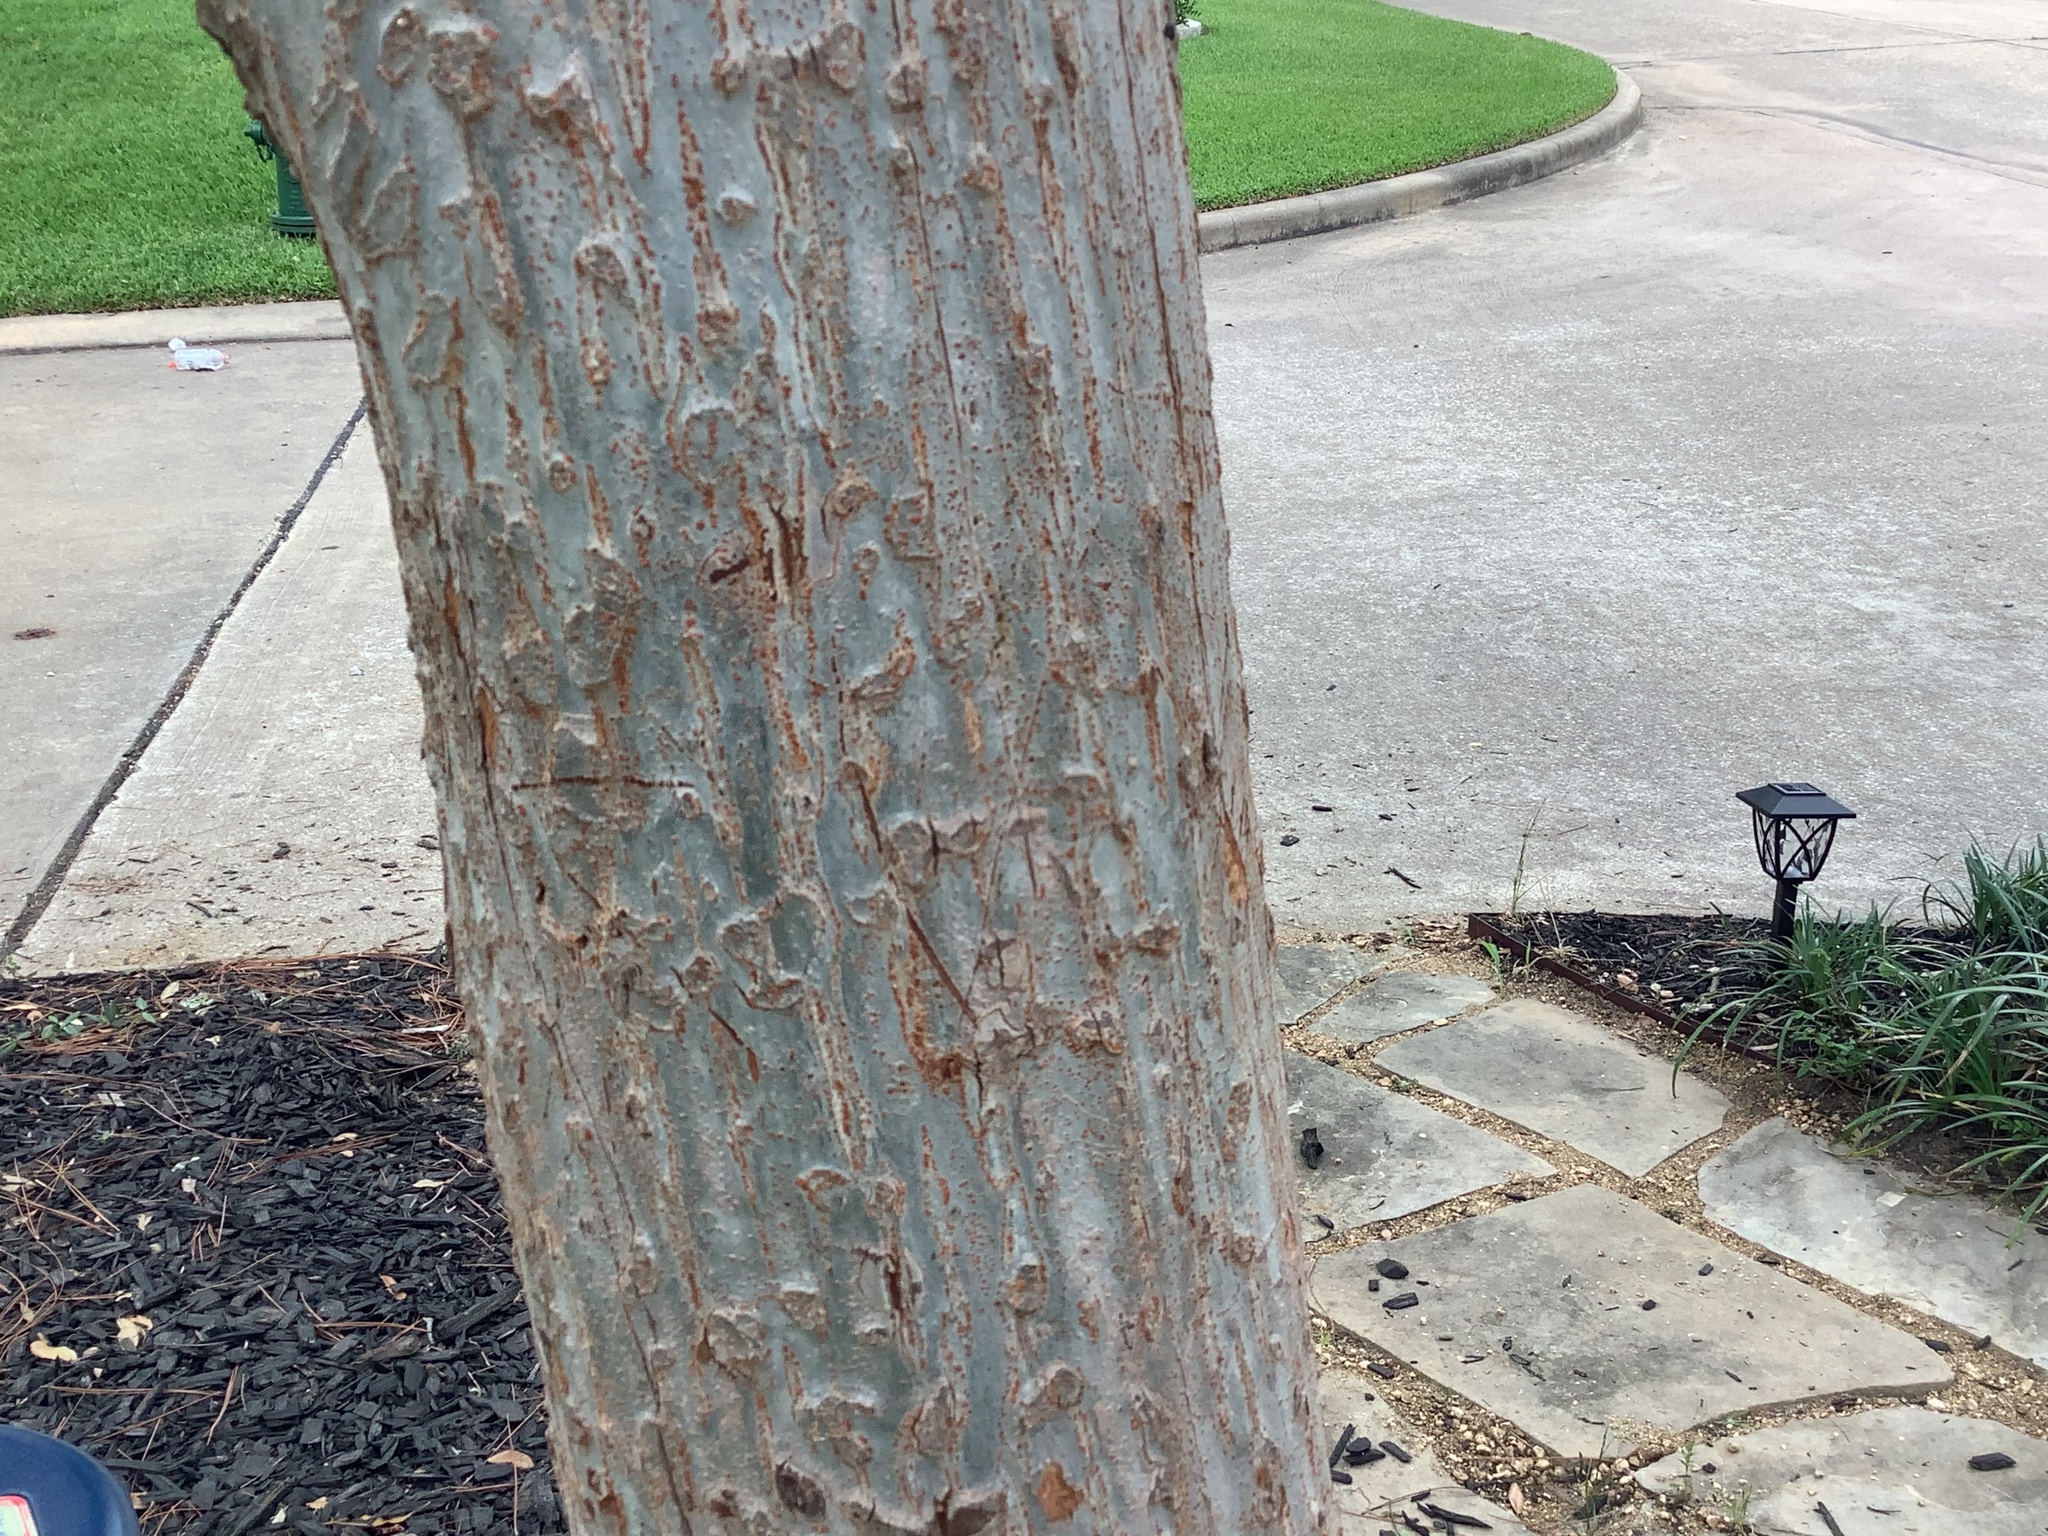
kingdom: Plantae
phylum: Tracheophyta
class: Magnoliopsida
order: Rosales
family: Ulmaceae
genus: Ulmus
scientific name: Ulmus parvifolia
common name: Chinese elm
